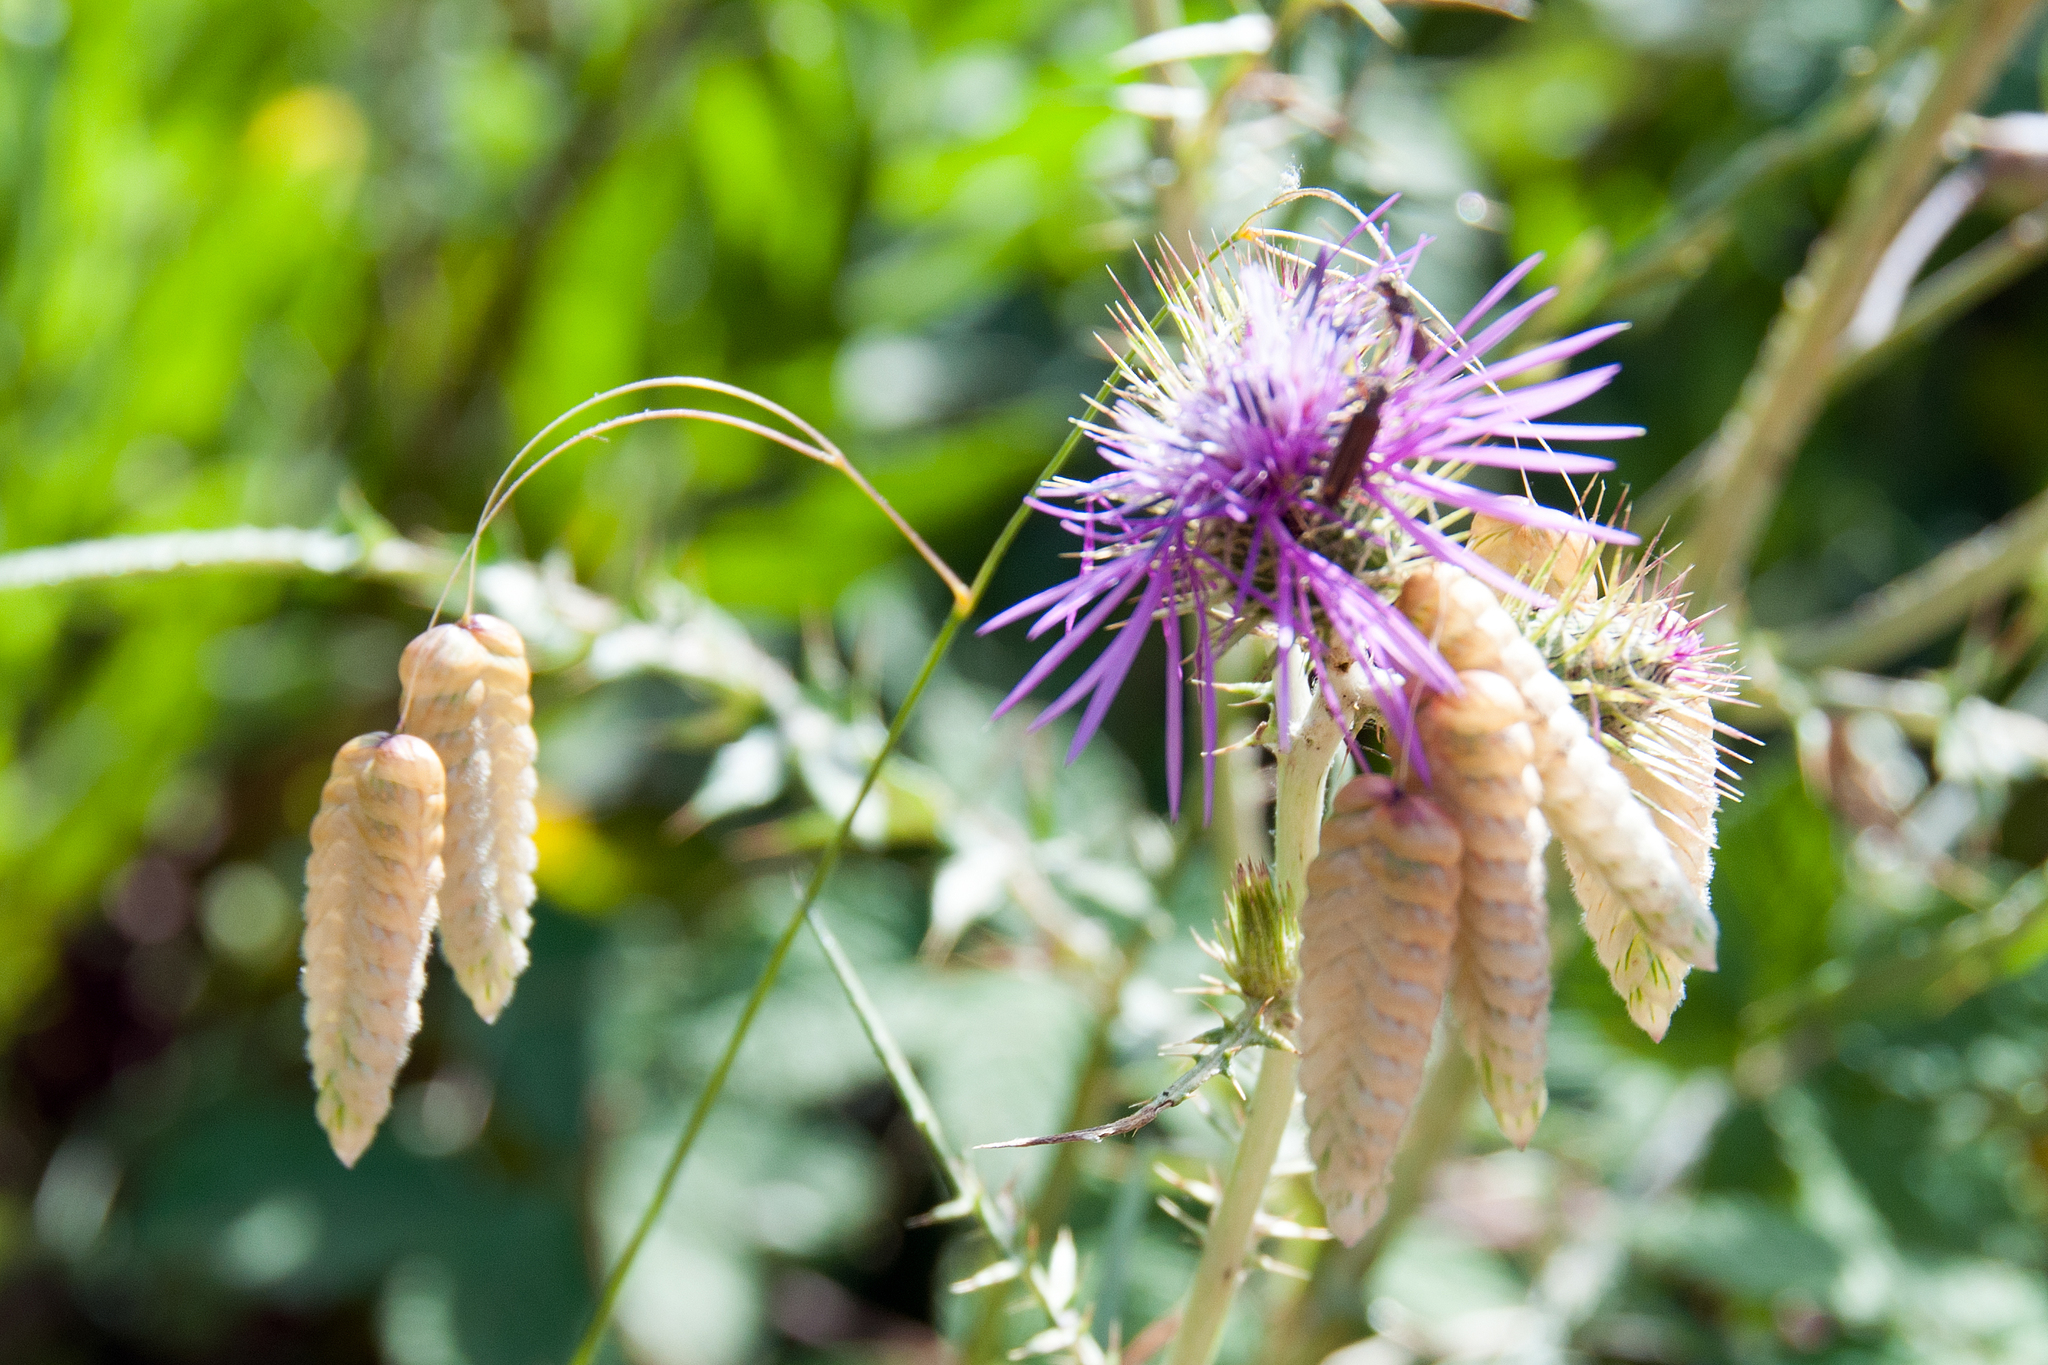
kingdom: Plantae
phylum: Tracheophyta
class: Liliopsida
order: Poales
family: Poaceae
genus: Briza
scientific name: Briza maxima
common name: Big quakinggrass
